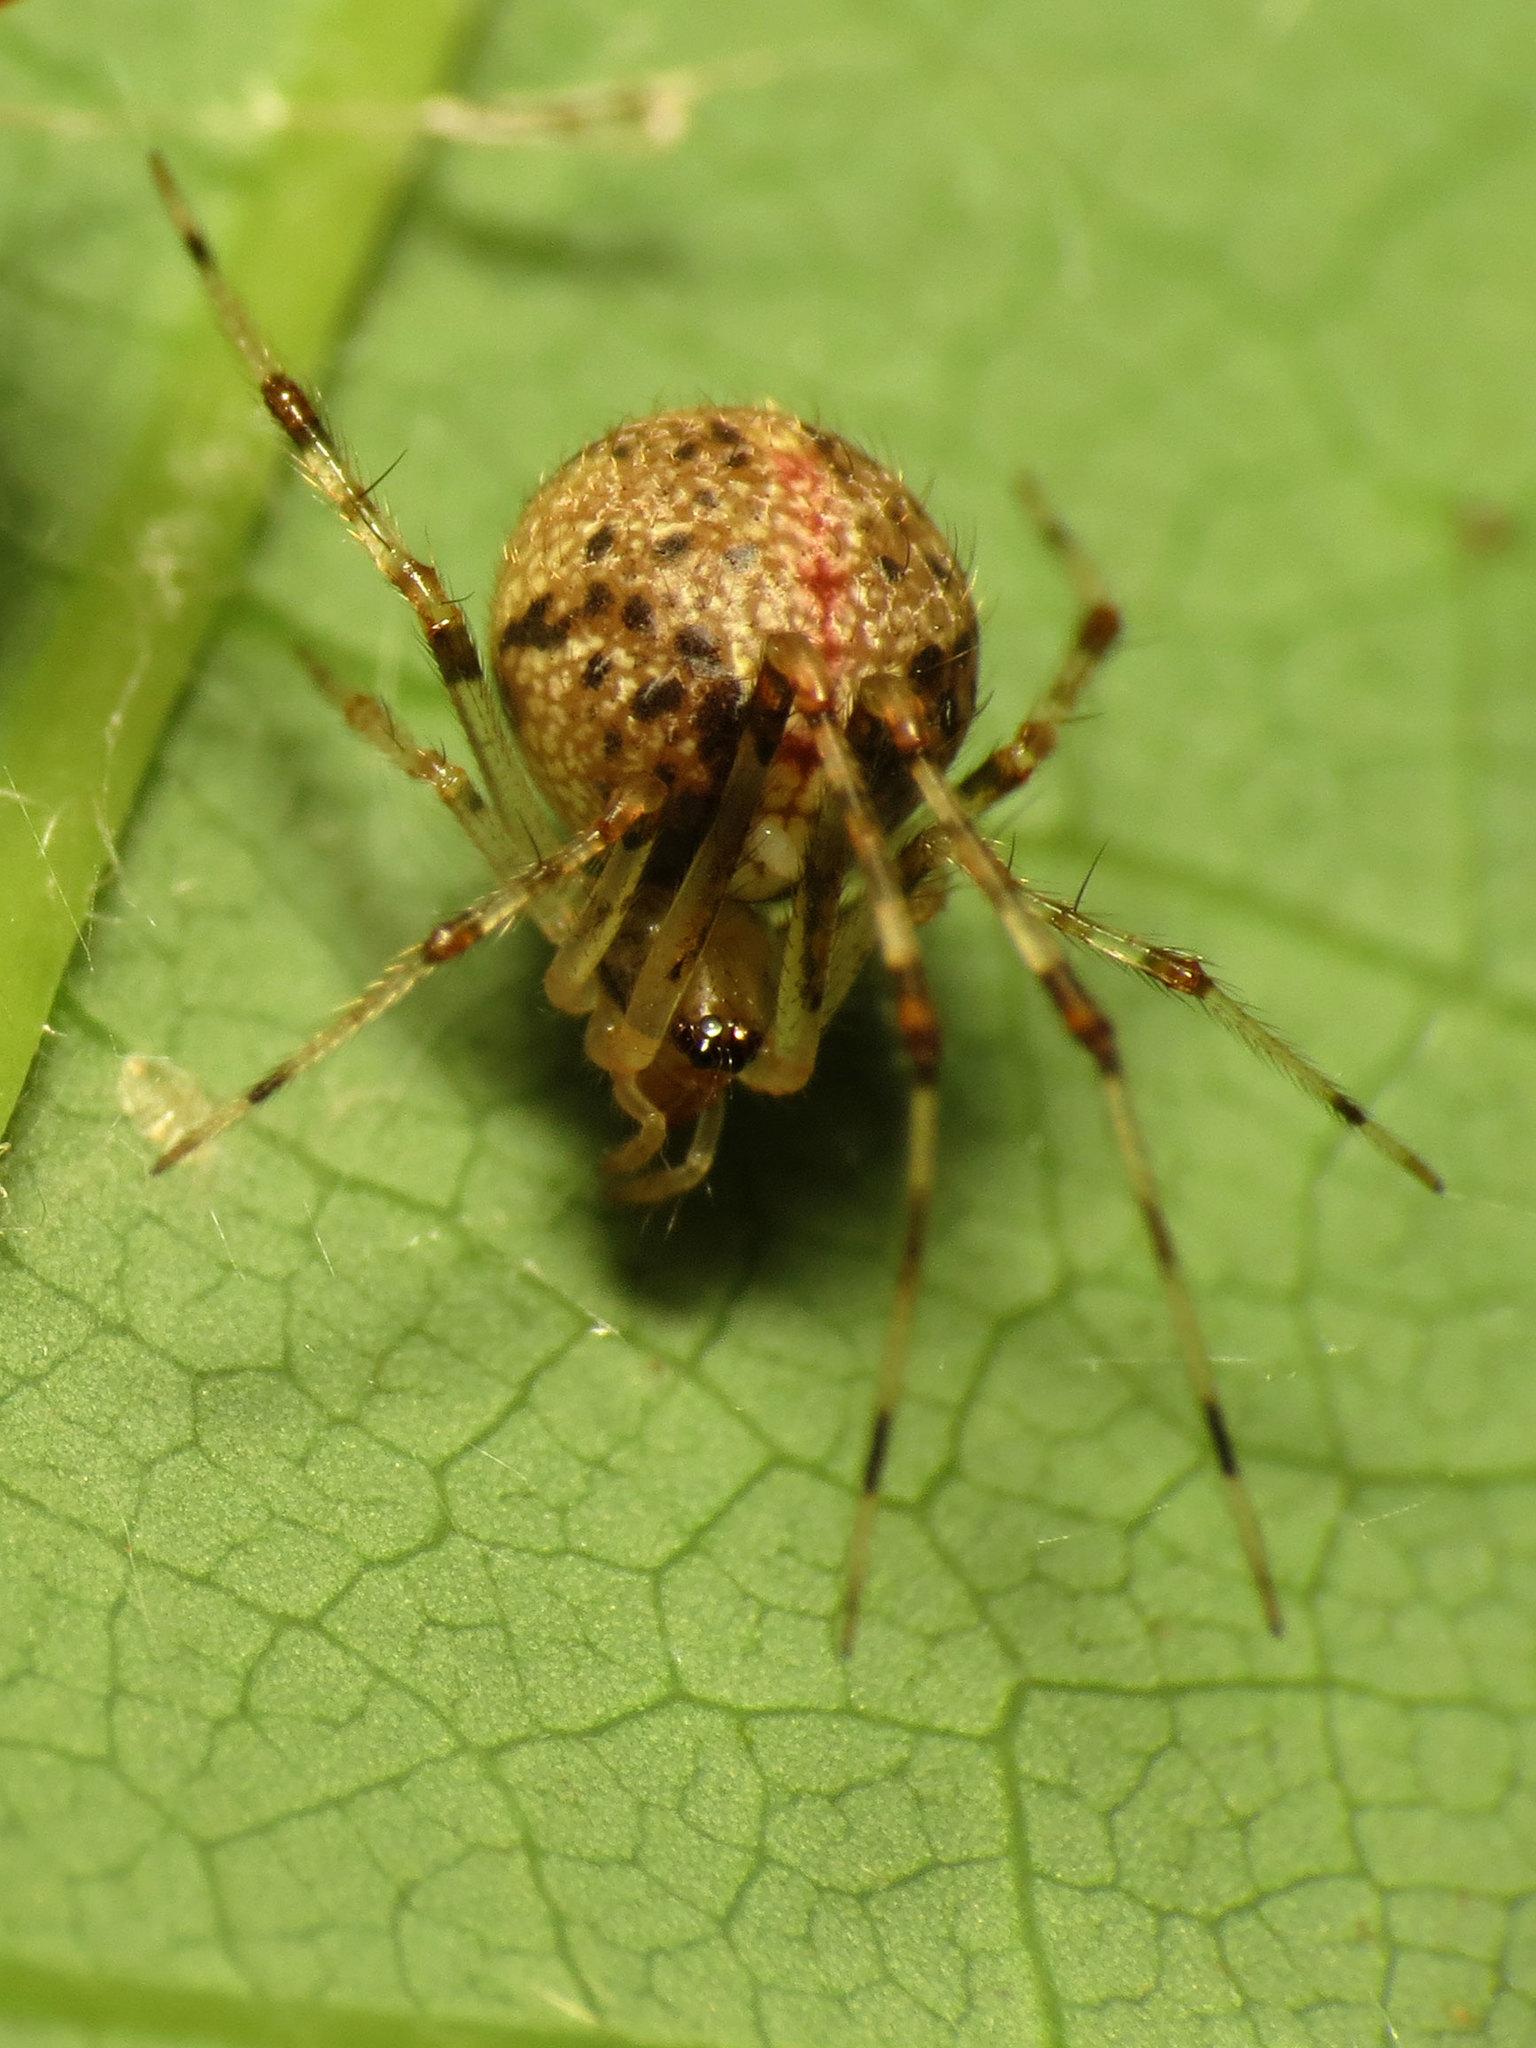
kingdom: Animalia
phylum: Arthropoda
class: Arachnida
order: Araneae
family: Theridiidae
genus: Yunohamella
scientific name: Yunohamella lyrica
